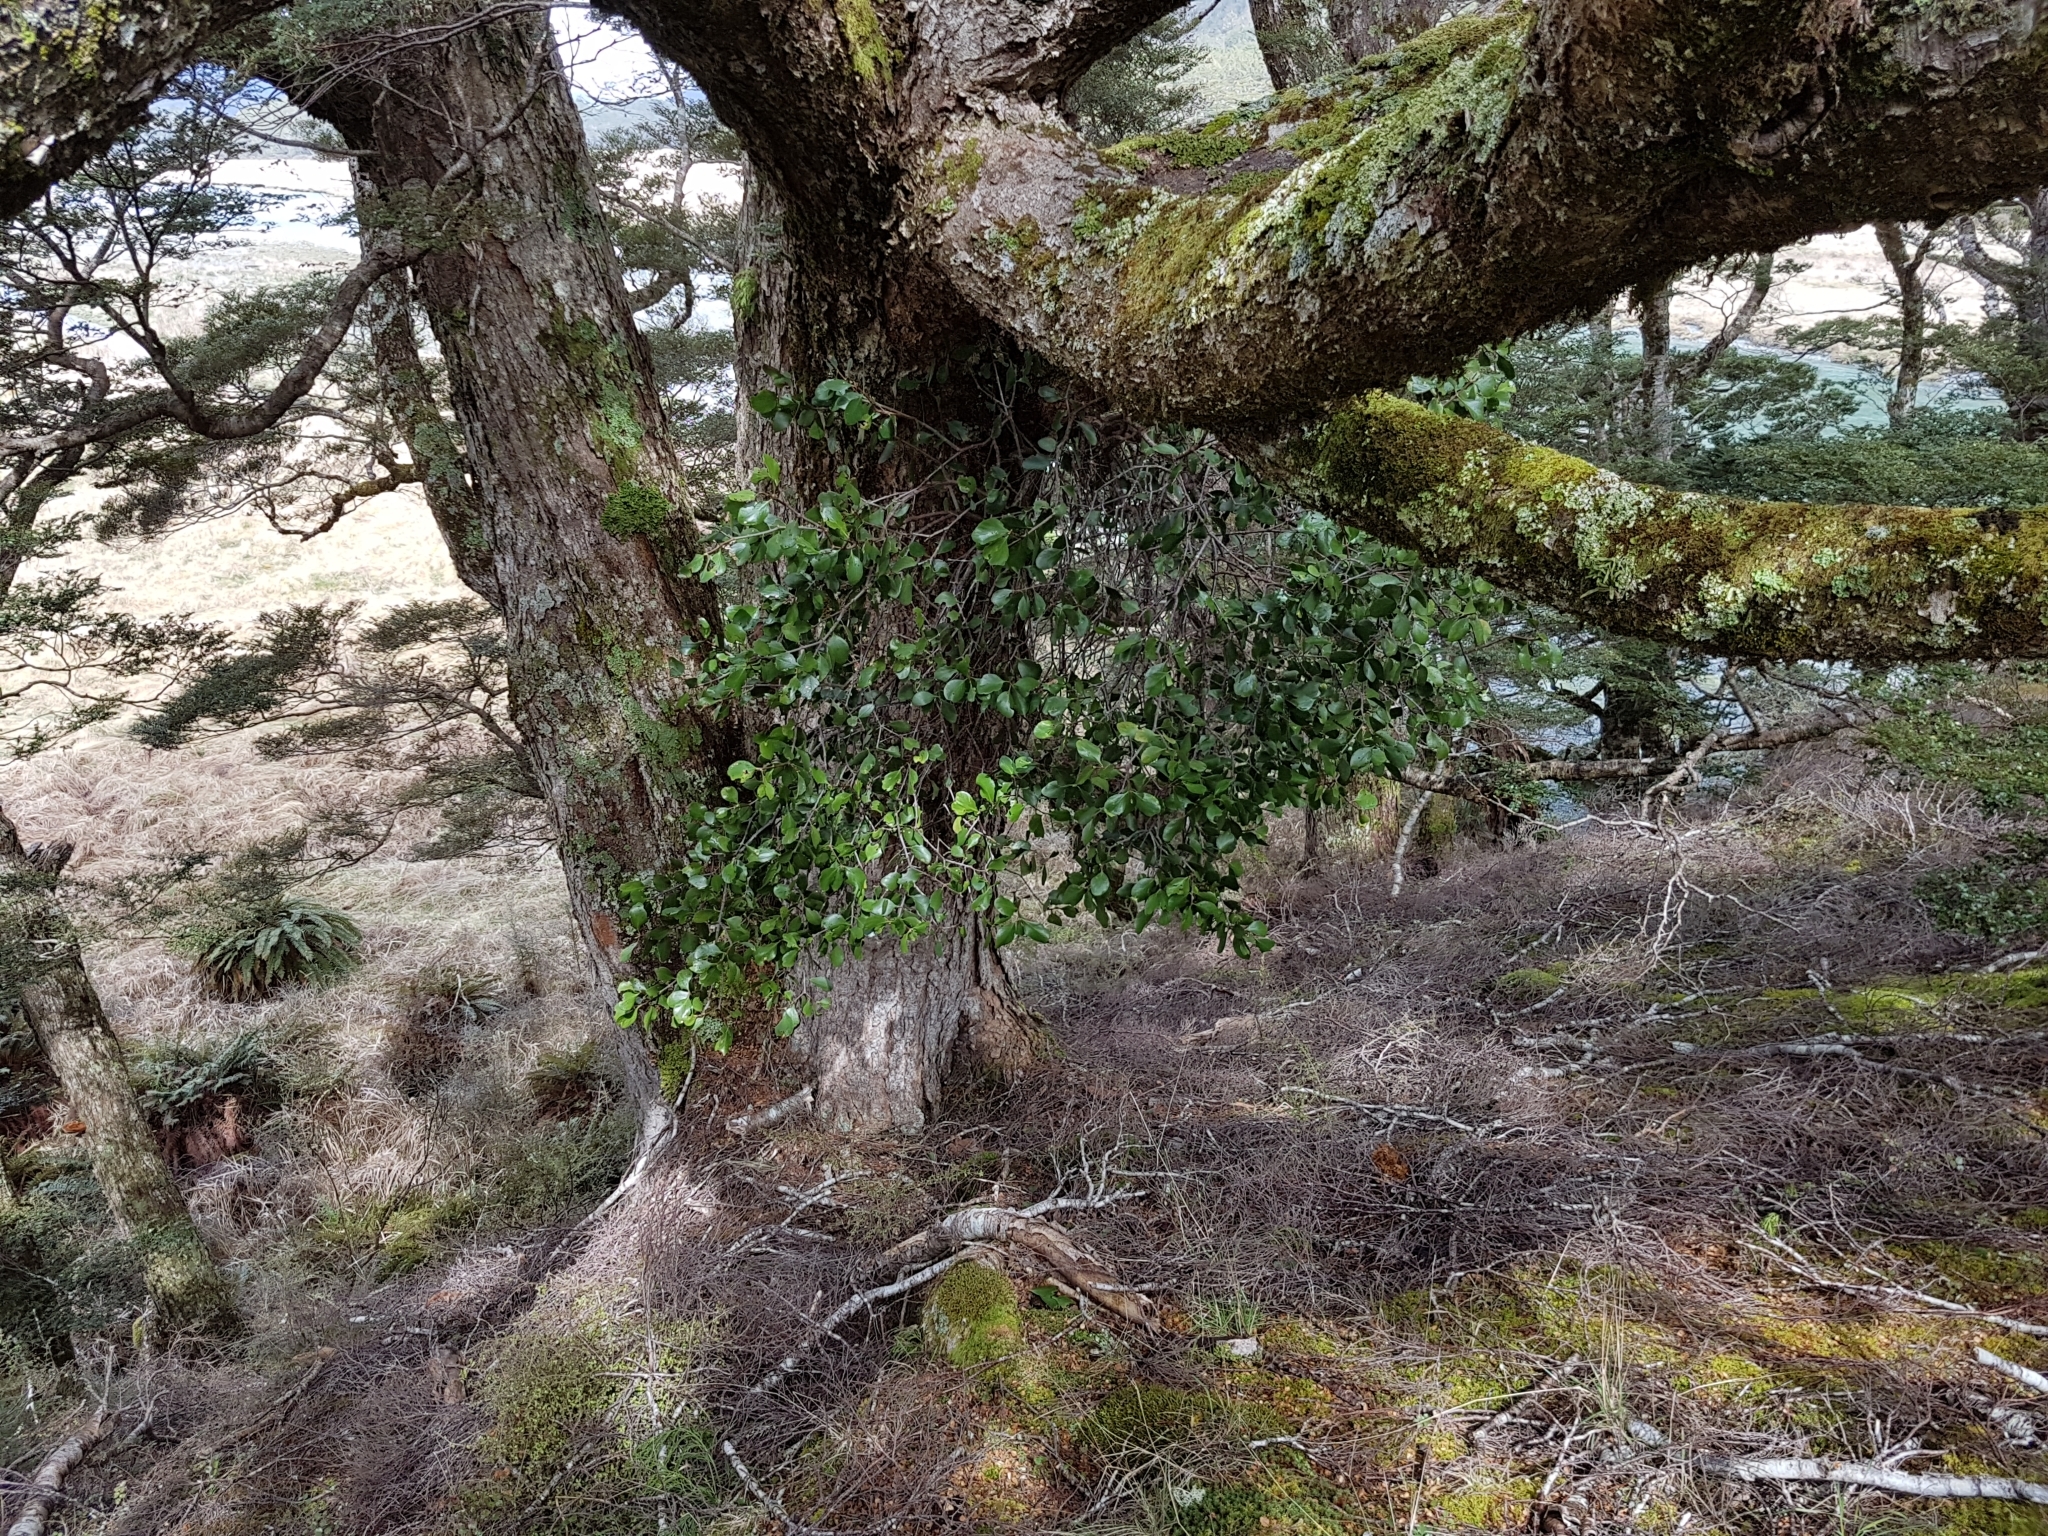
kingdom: Plantae
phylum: Tracheophyta
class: Magnoliopsida
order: Santalales
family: Loranthaceae
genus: Peraxilla
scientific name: Peraxilla colensoi
